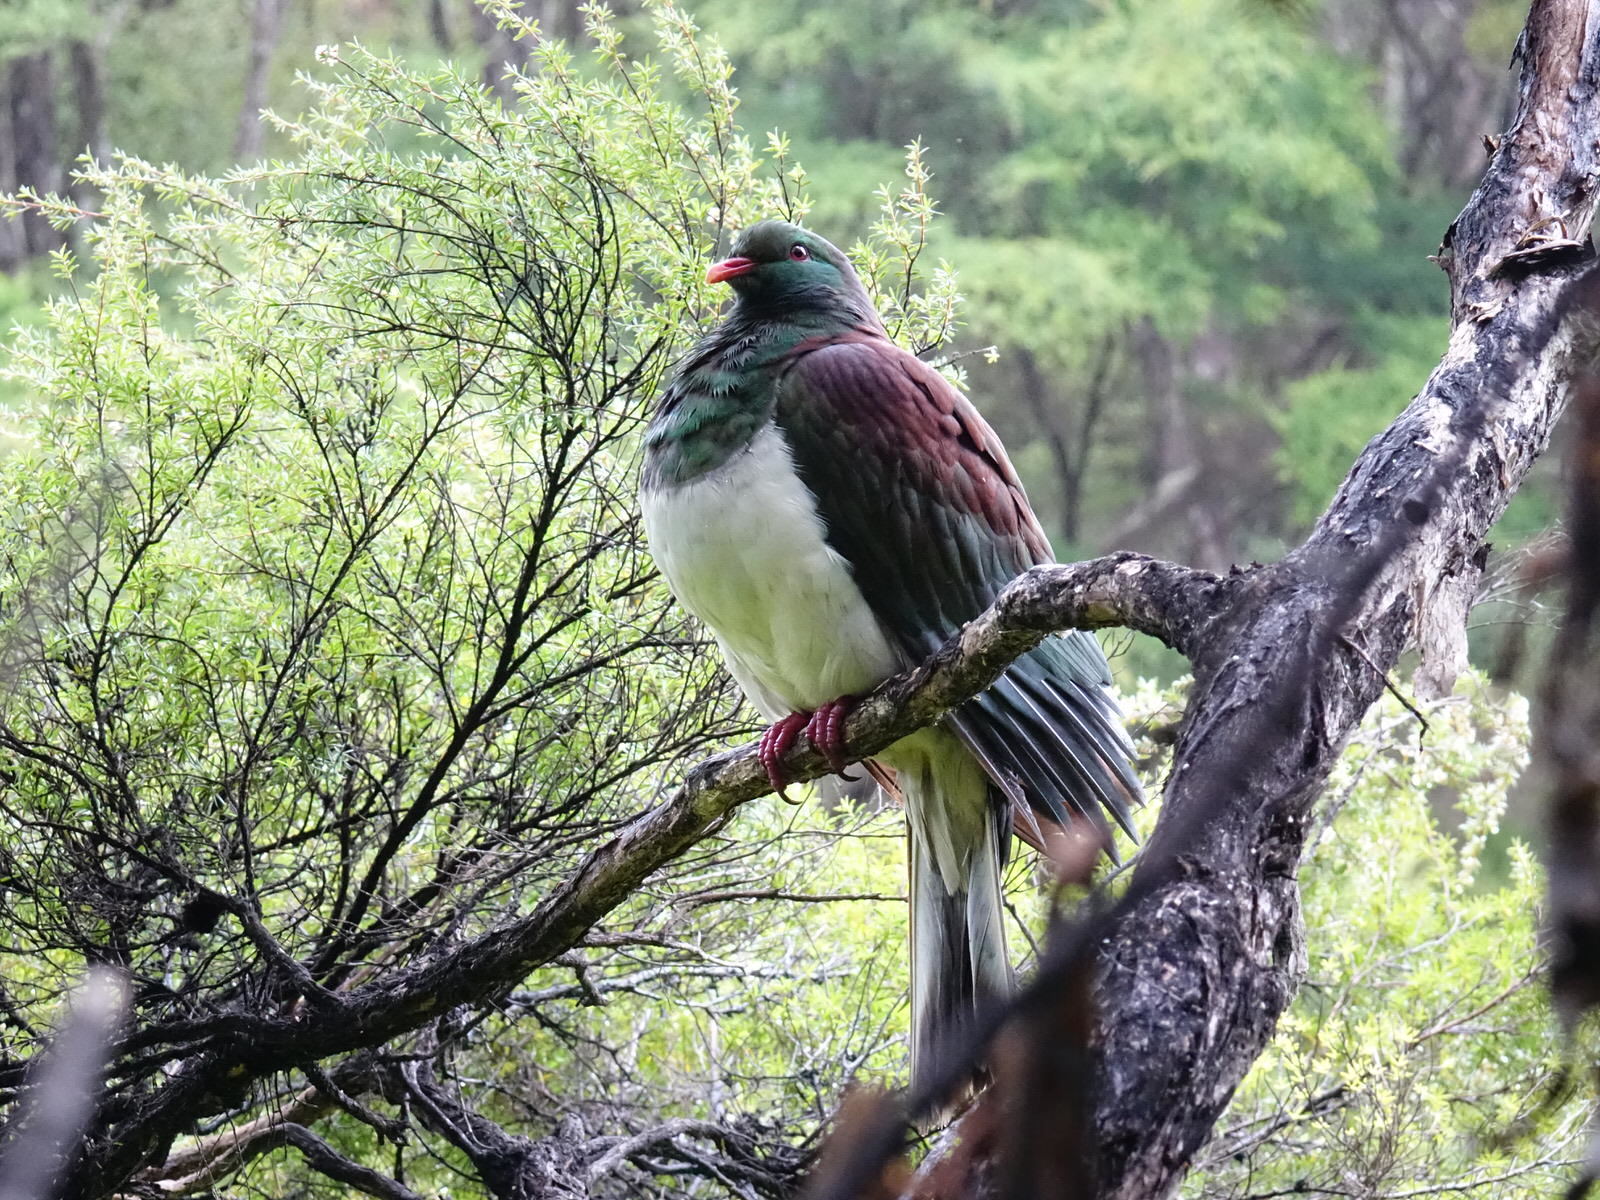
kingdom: Animalia
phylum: Chordata
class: Aves
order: Columbiformes
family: Columbidae
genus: Hemiphaga
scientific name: Hemiphaga novaeseelandiae
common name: New zealand pigeon
